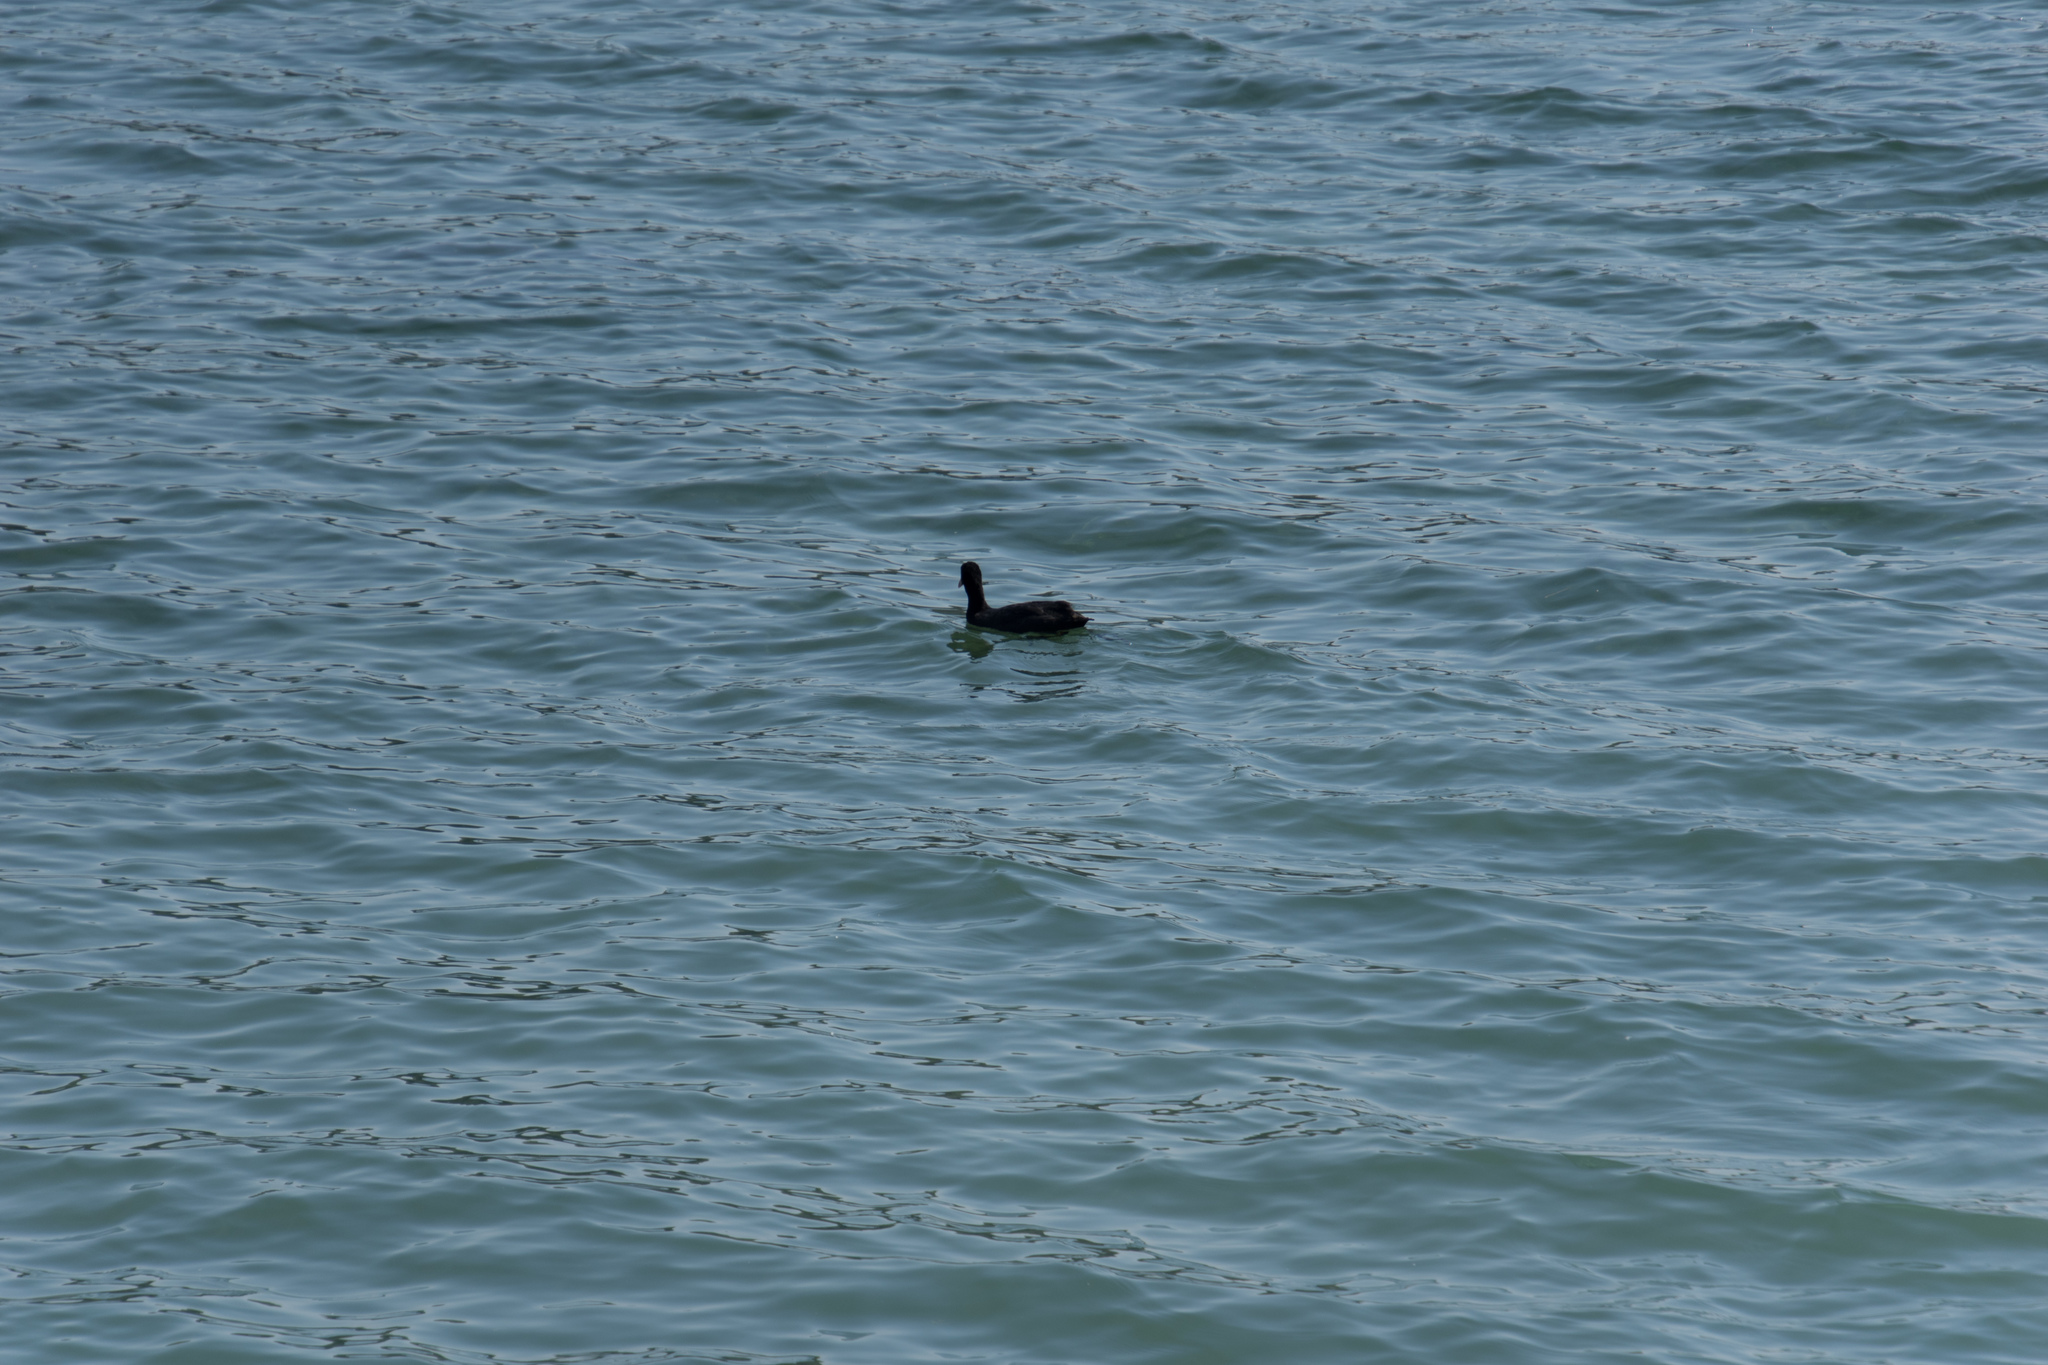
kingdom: Animalia
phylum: Chordata
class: Aves
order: Gruiformes
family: Rallidae
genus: Fulica
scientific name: Fulica atra
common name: Eurasian coot
